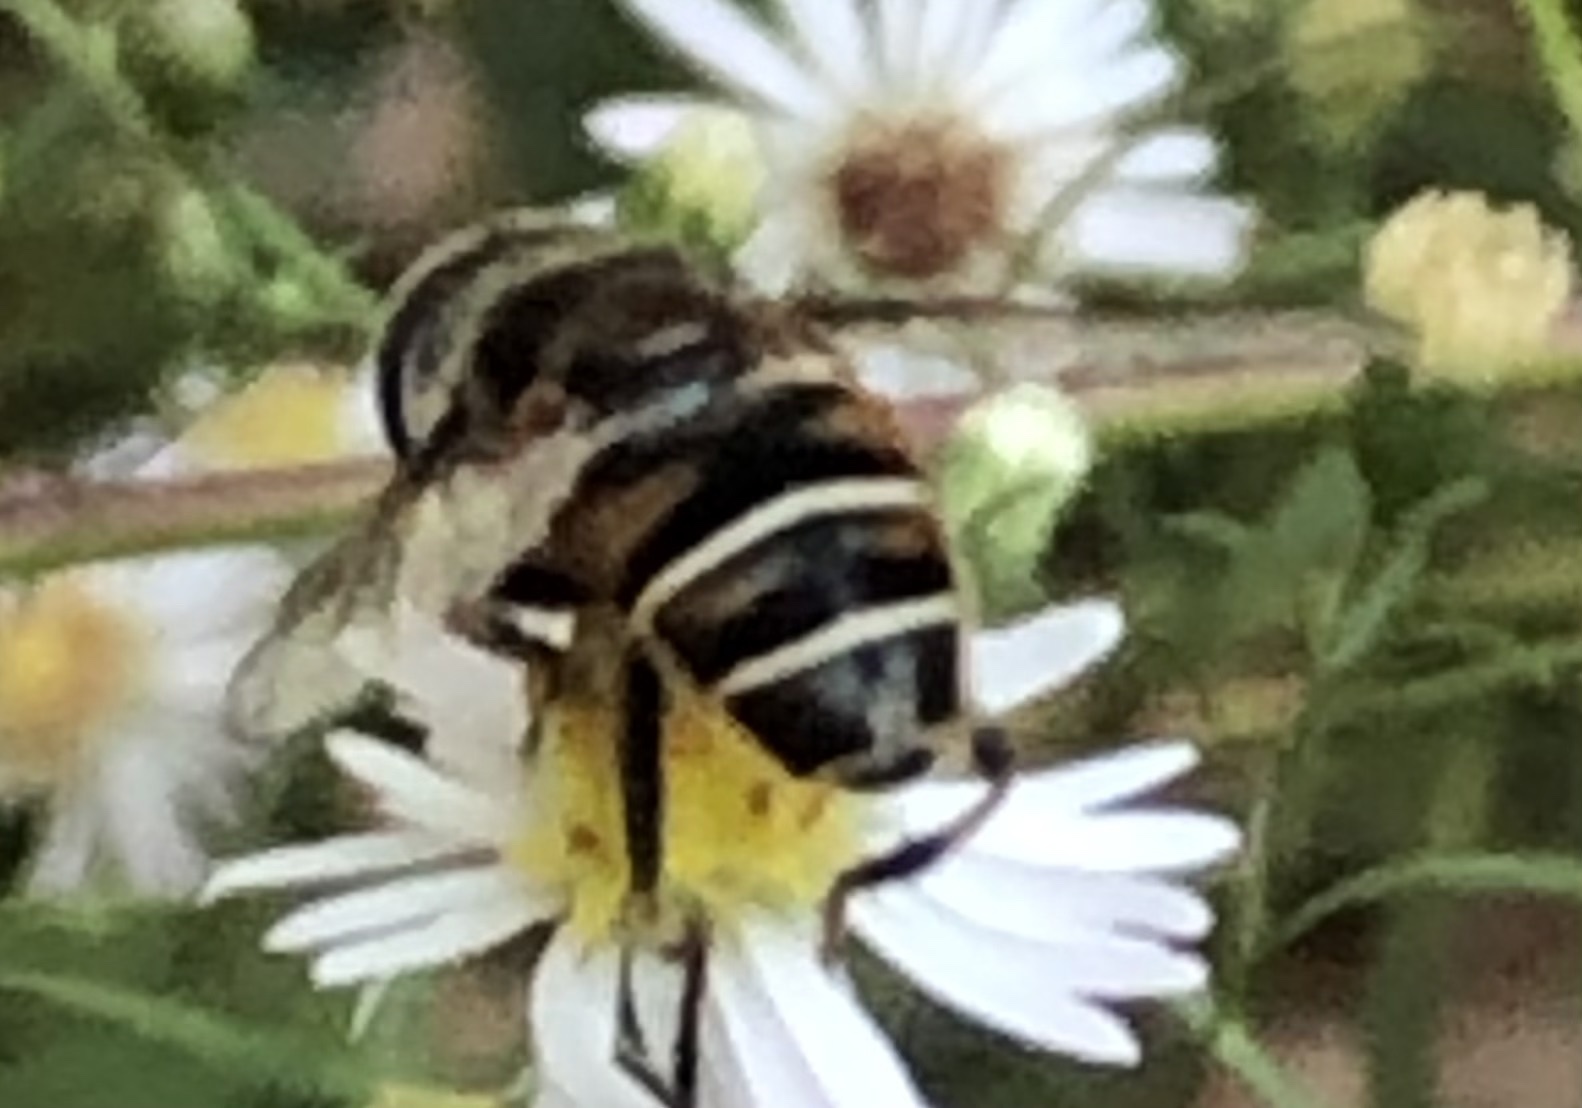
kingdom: Animalia
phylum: Arthropoda
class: Insecta
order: Diptera
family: Syrphidae
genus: Eristalis
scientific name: Eristalis dimidiata
